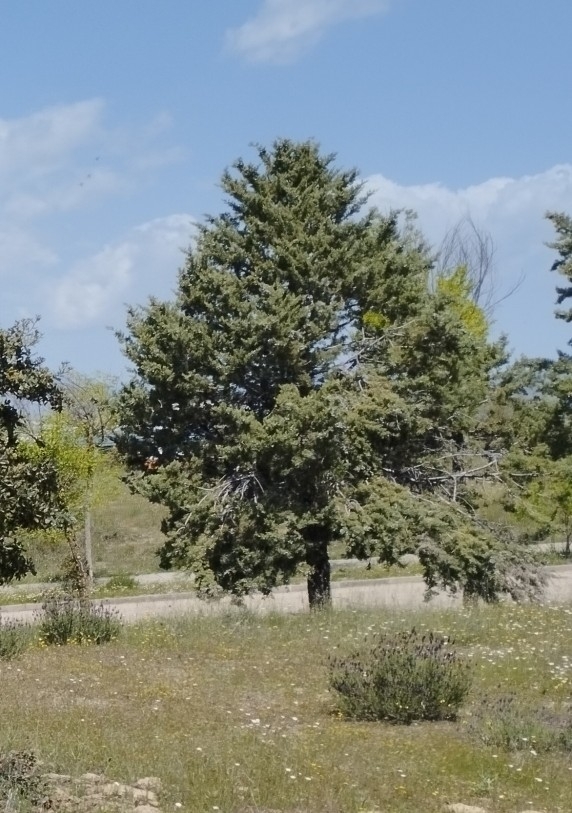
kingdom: Plantae
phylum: Tracheophyta
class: Pinopsida
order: Pinales
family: Cupressaceae
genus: Cupressus
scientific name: Cupressus arizonica
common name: Arizona cypress
